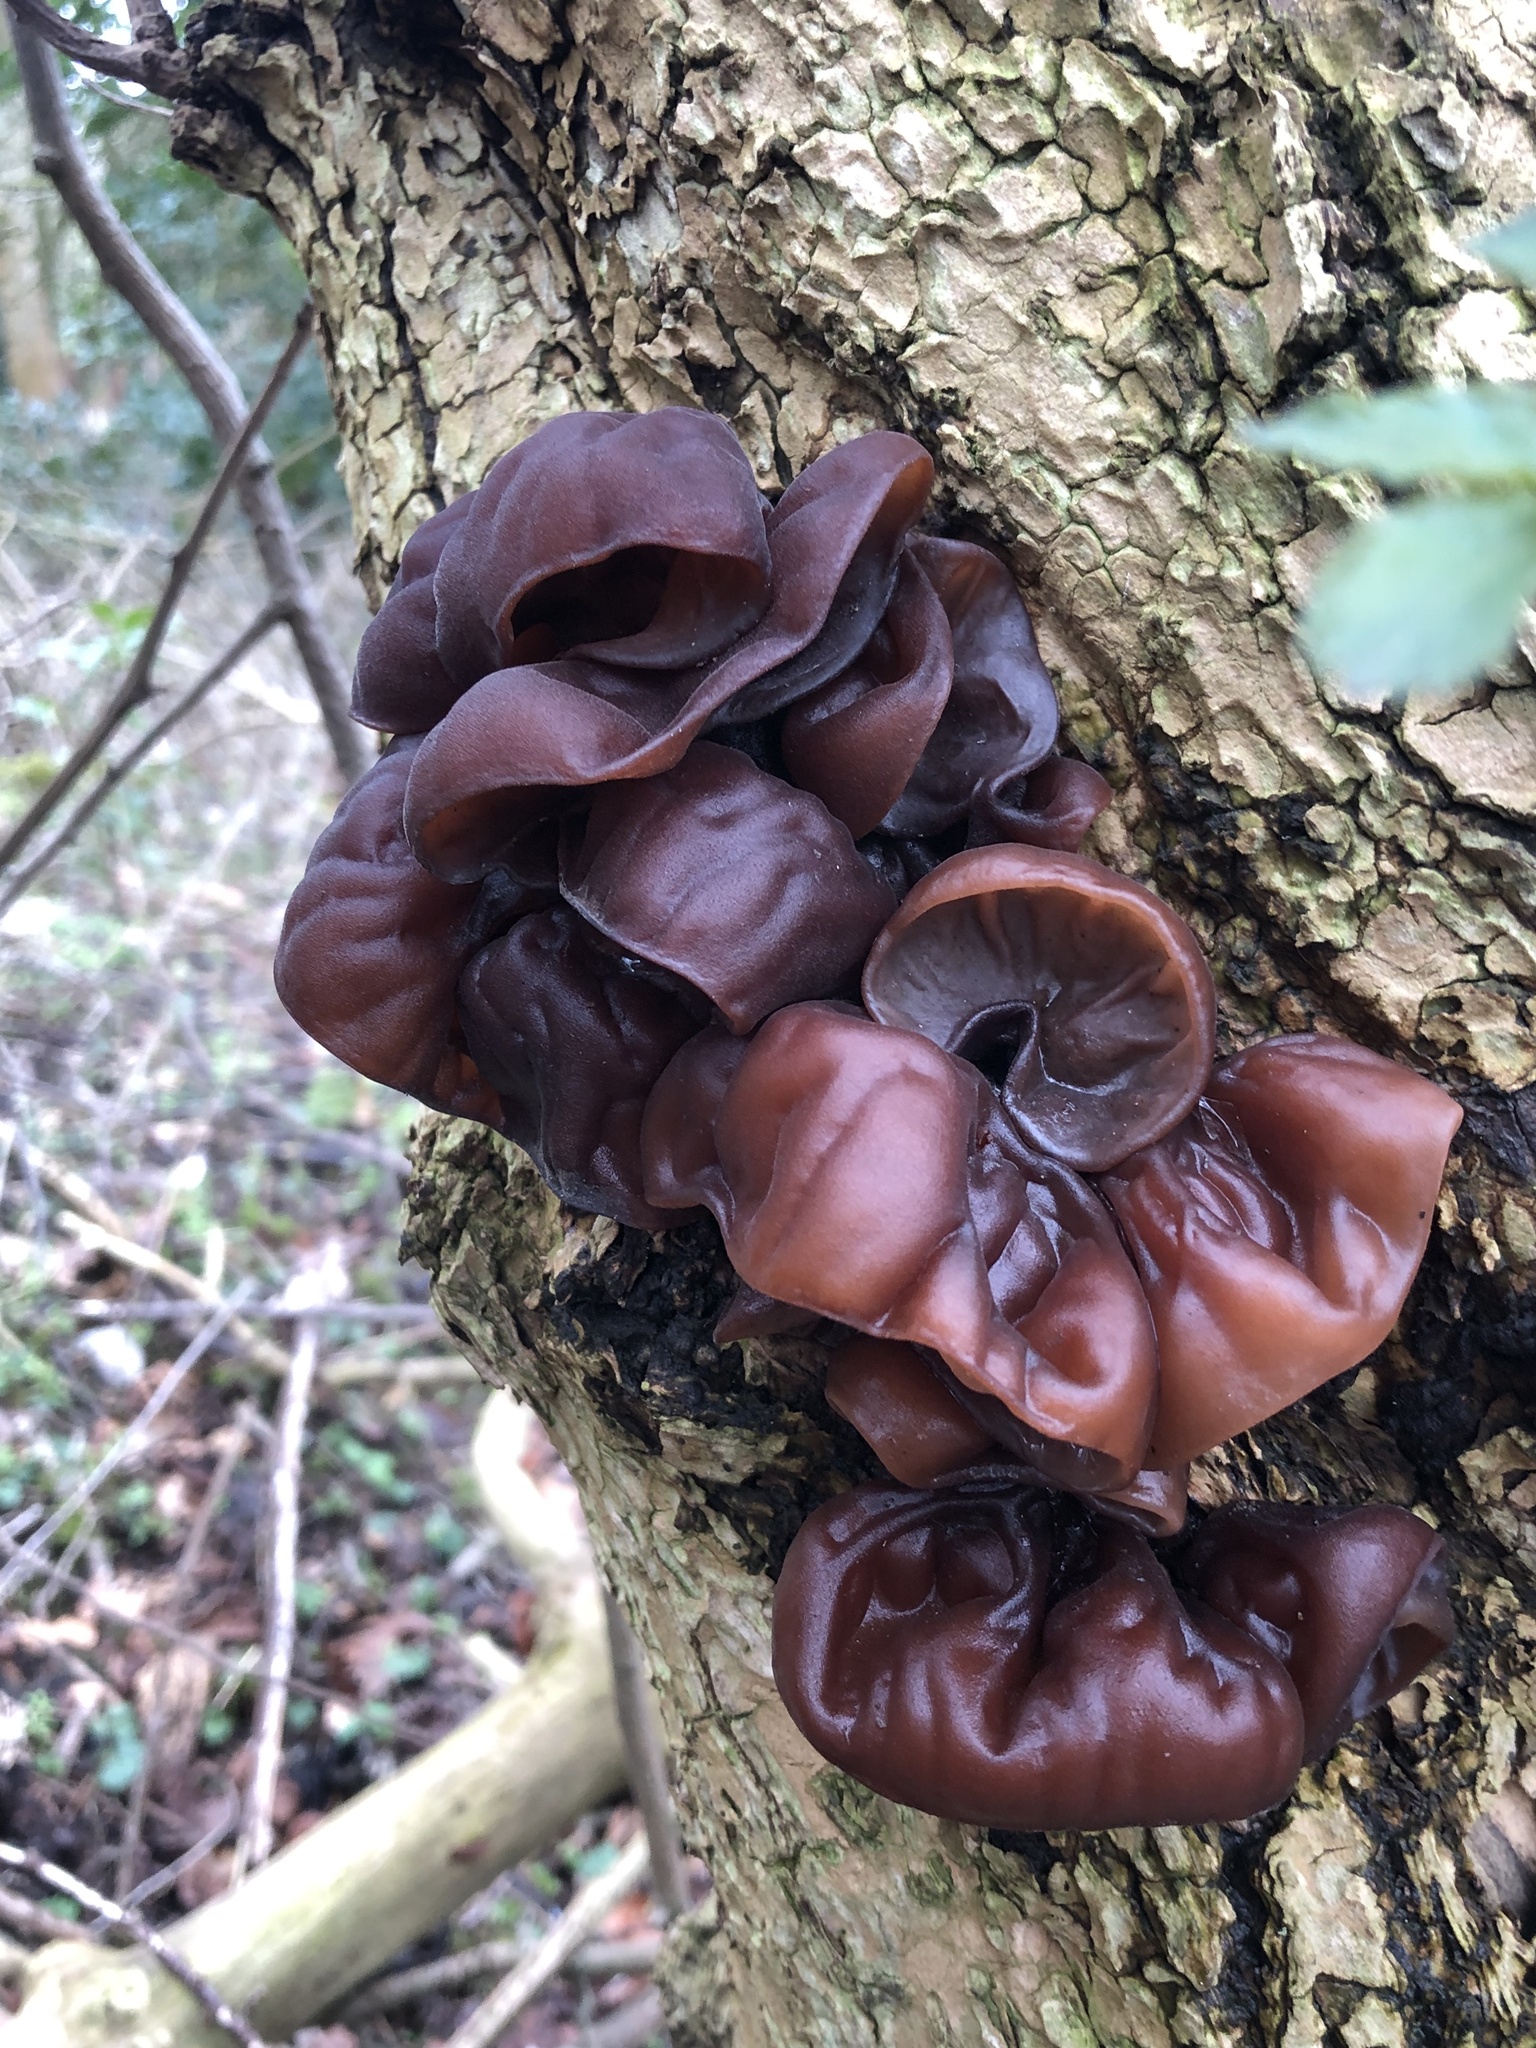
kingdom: Fungi
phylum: Basidiomycota
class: Agaricomycetes
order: Auriculariales
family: Auriculariaceae
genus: Auricularia
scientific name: Auricularia auricula-judae
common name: Jelly ear
